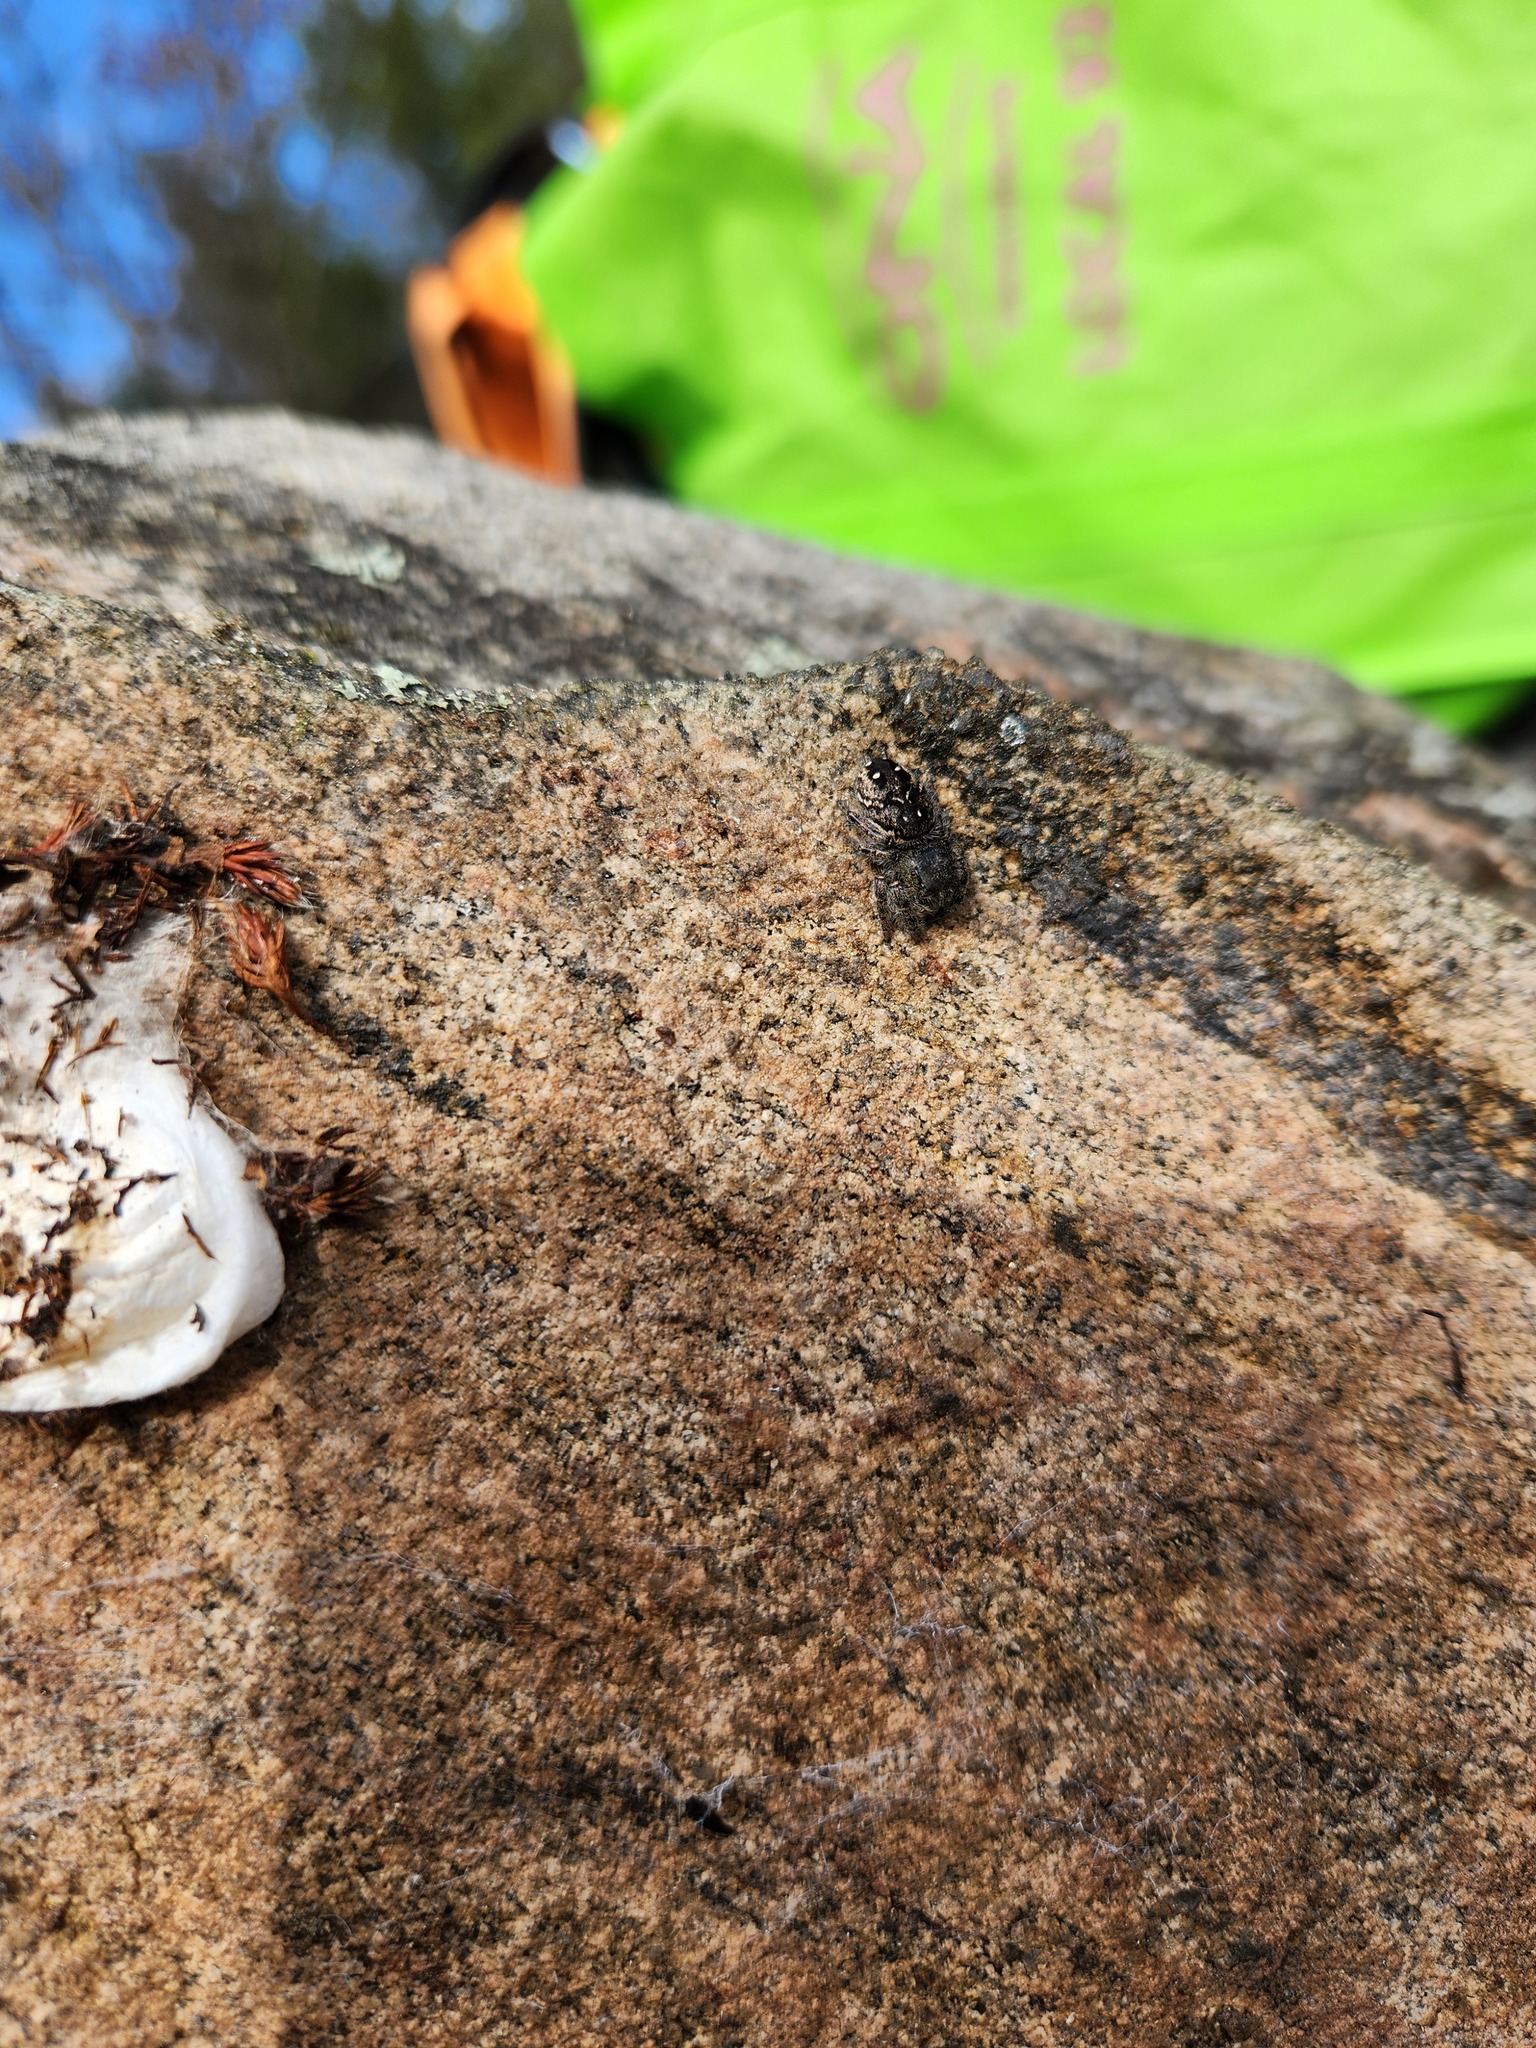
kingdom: Animalia
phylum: Arthropoda
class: Arachnida
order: Araneae
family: Salticidae
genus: Phidippus
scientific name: Phidippus purpuratus
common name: Marbled purple jumping spider
